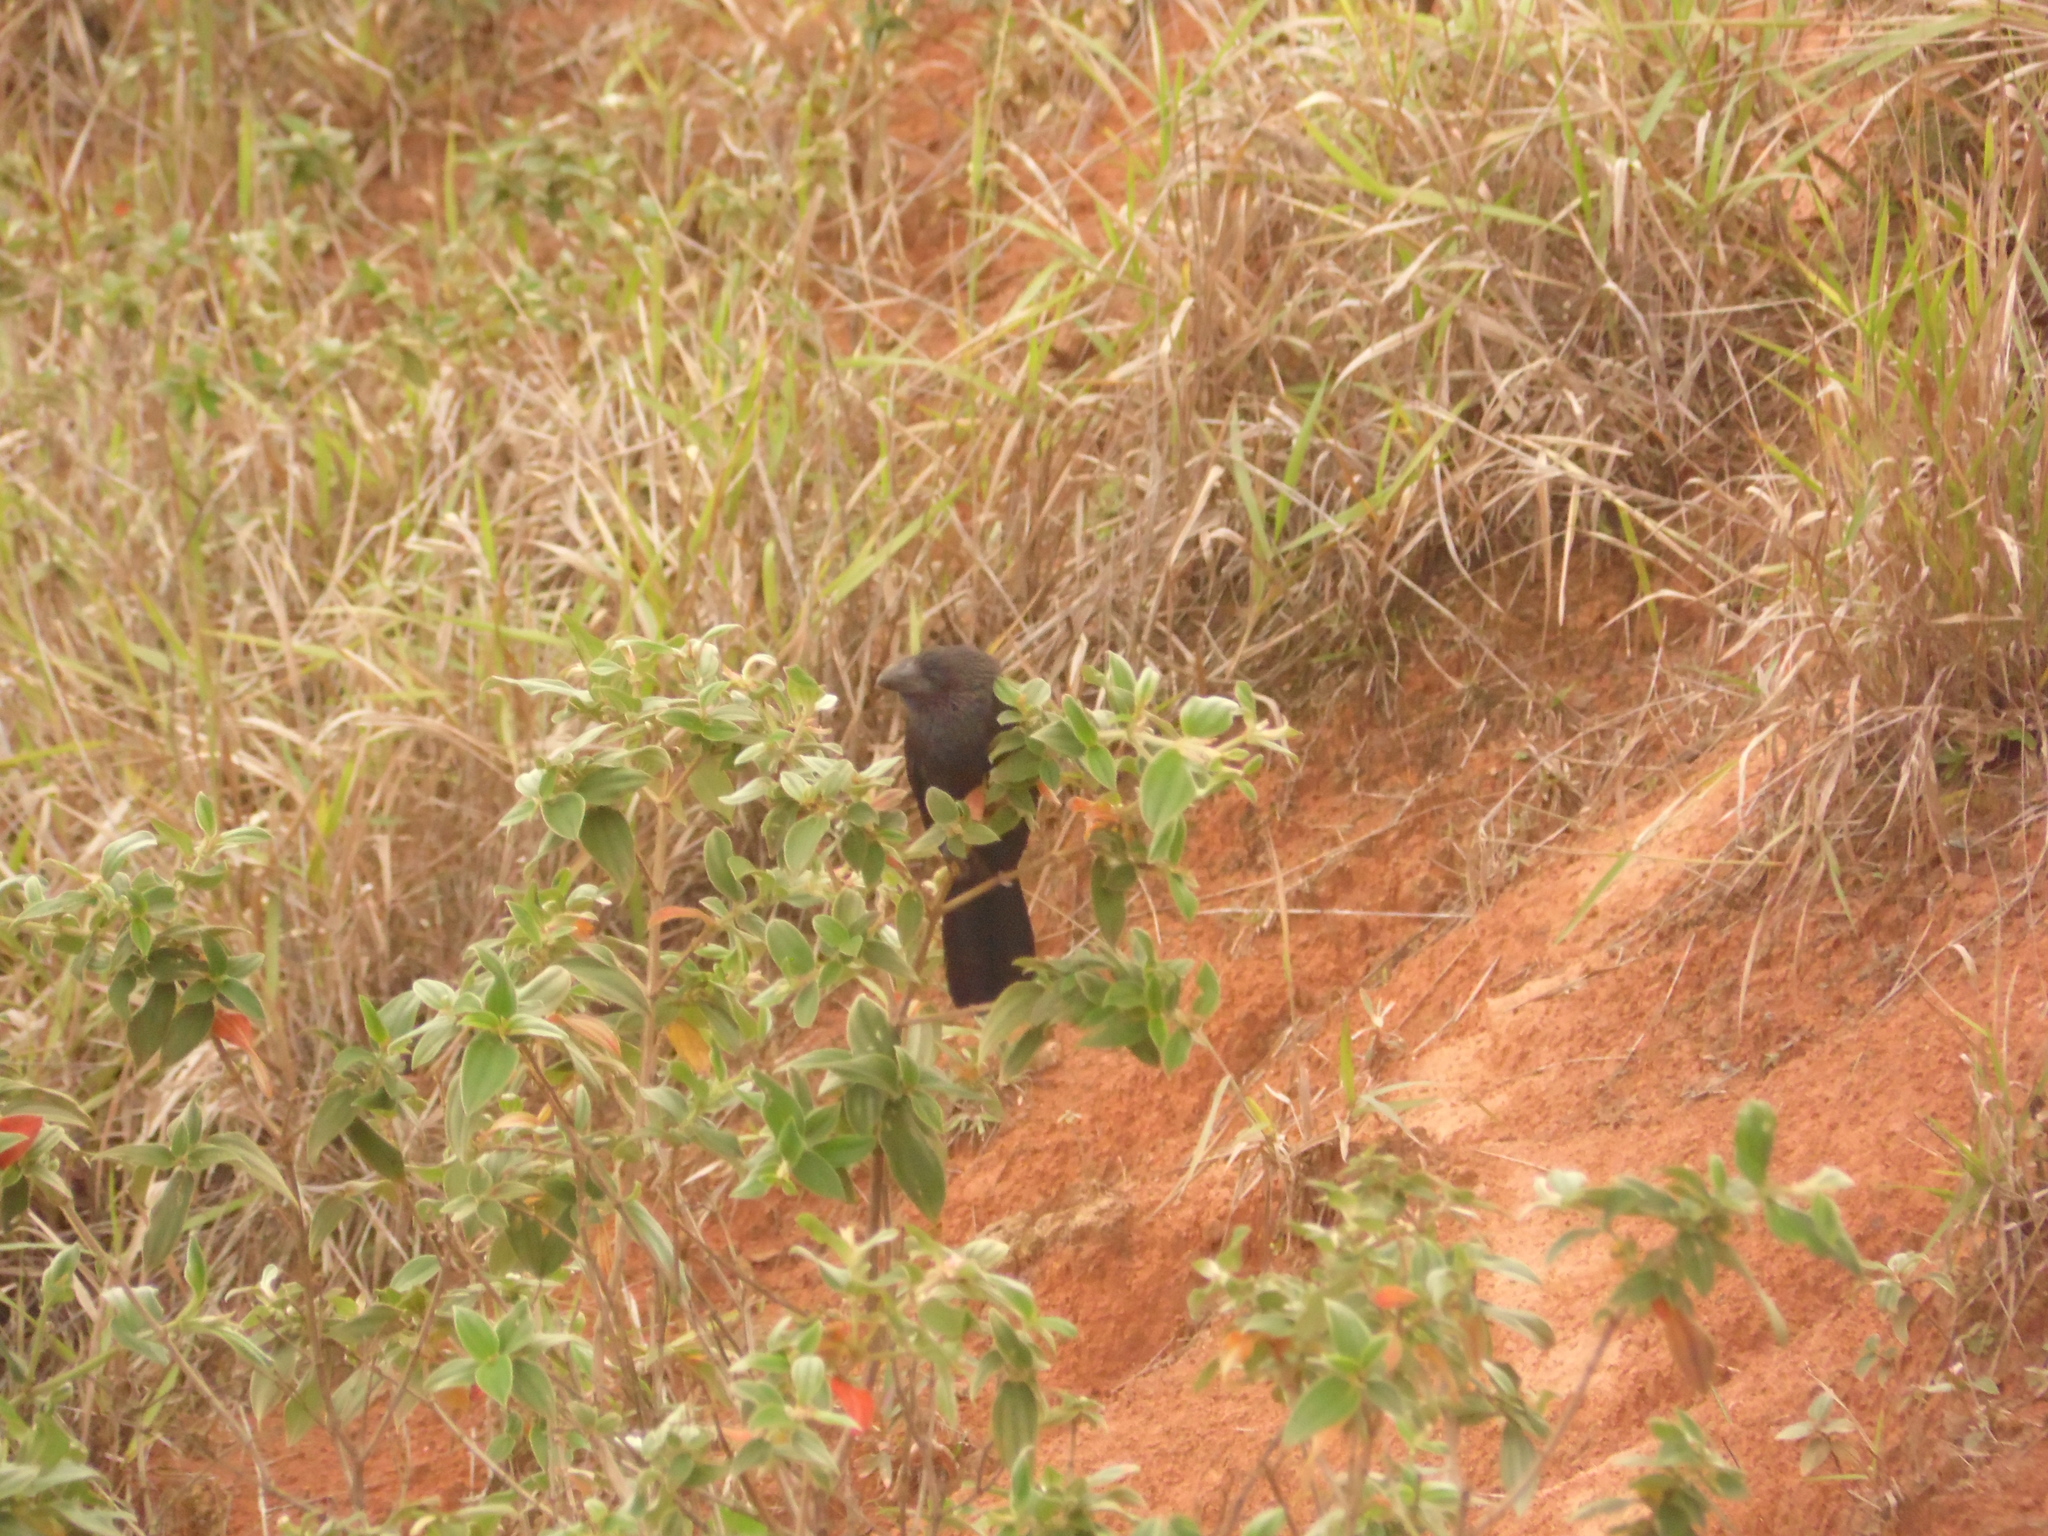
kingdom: Animalia
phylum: Chordata
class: Aves
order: Cuculiformes
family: Cuculidae
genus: Crotophaga
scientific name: Crotophaga ani
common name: Smooth-billed ani
